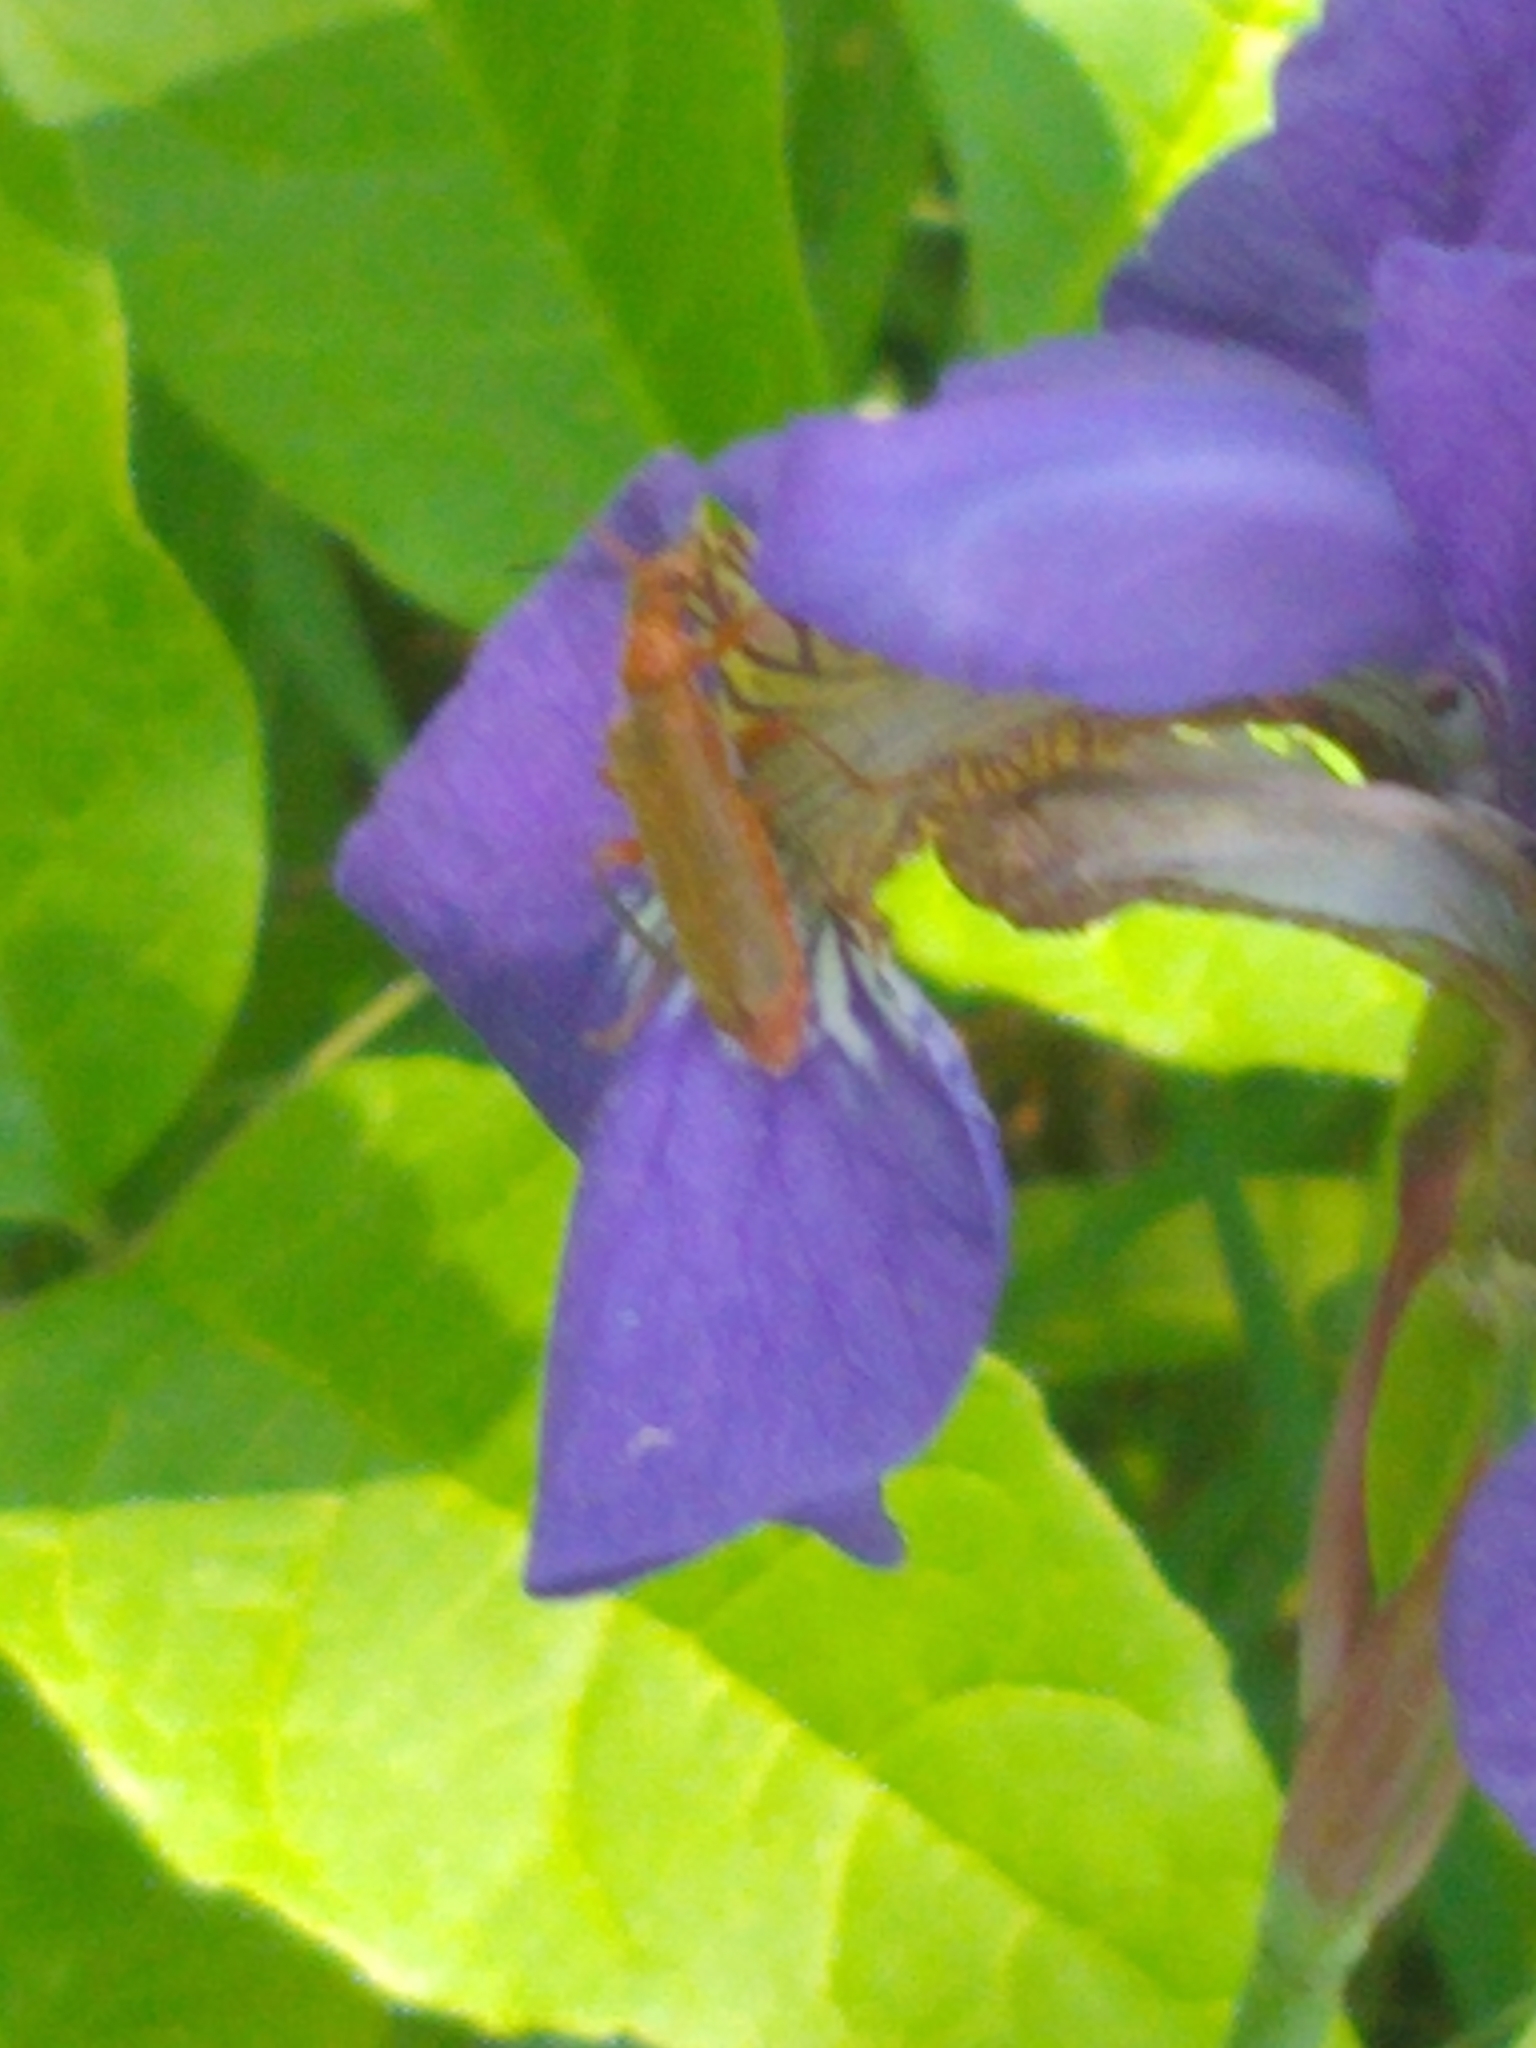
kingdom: Animalia
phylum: Arthropoda
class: Insecta
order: Coleoptera
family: Cantharidae
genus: Cantharis
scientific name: Cantharis rufa
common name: Red-spotted soldier beetle
